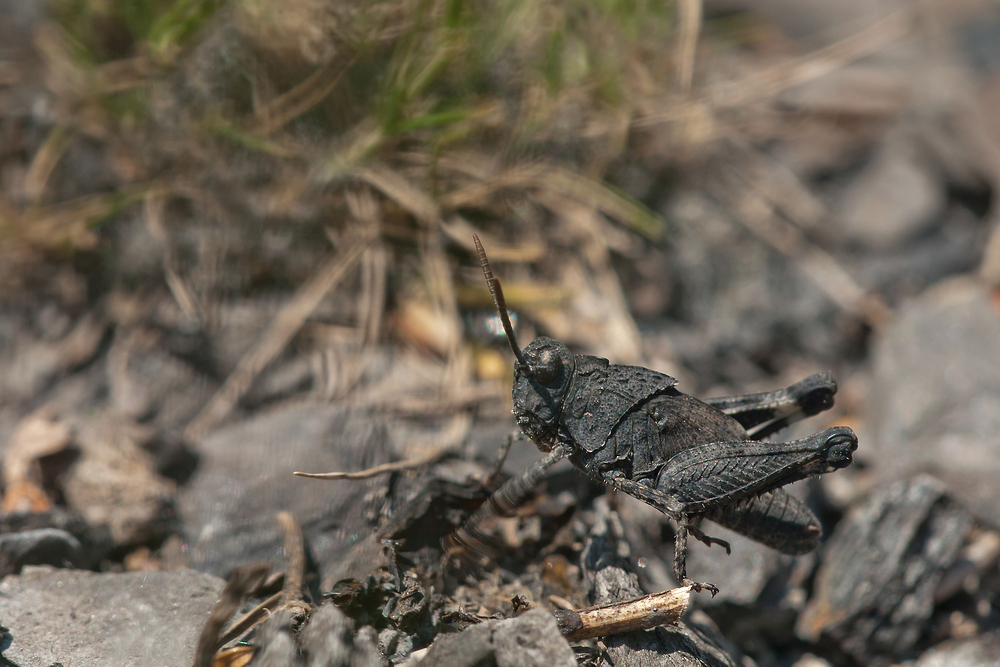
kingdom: Animalia
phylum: Arthropoda
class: Insecta
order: Orthoptera
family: Acrididae
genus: Oedipoda
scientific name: Oedipoda caerulescens
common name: Blue-winged grasshopper
